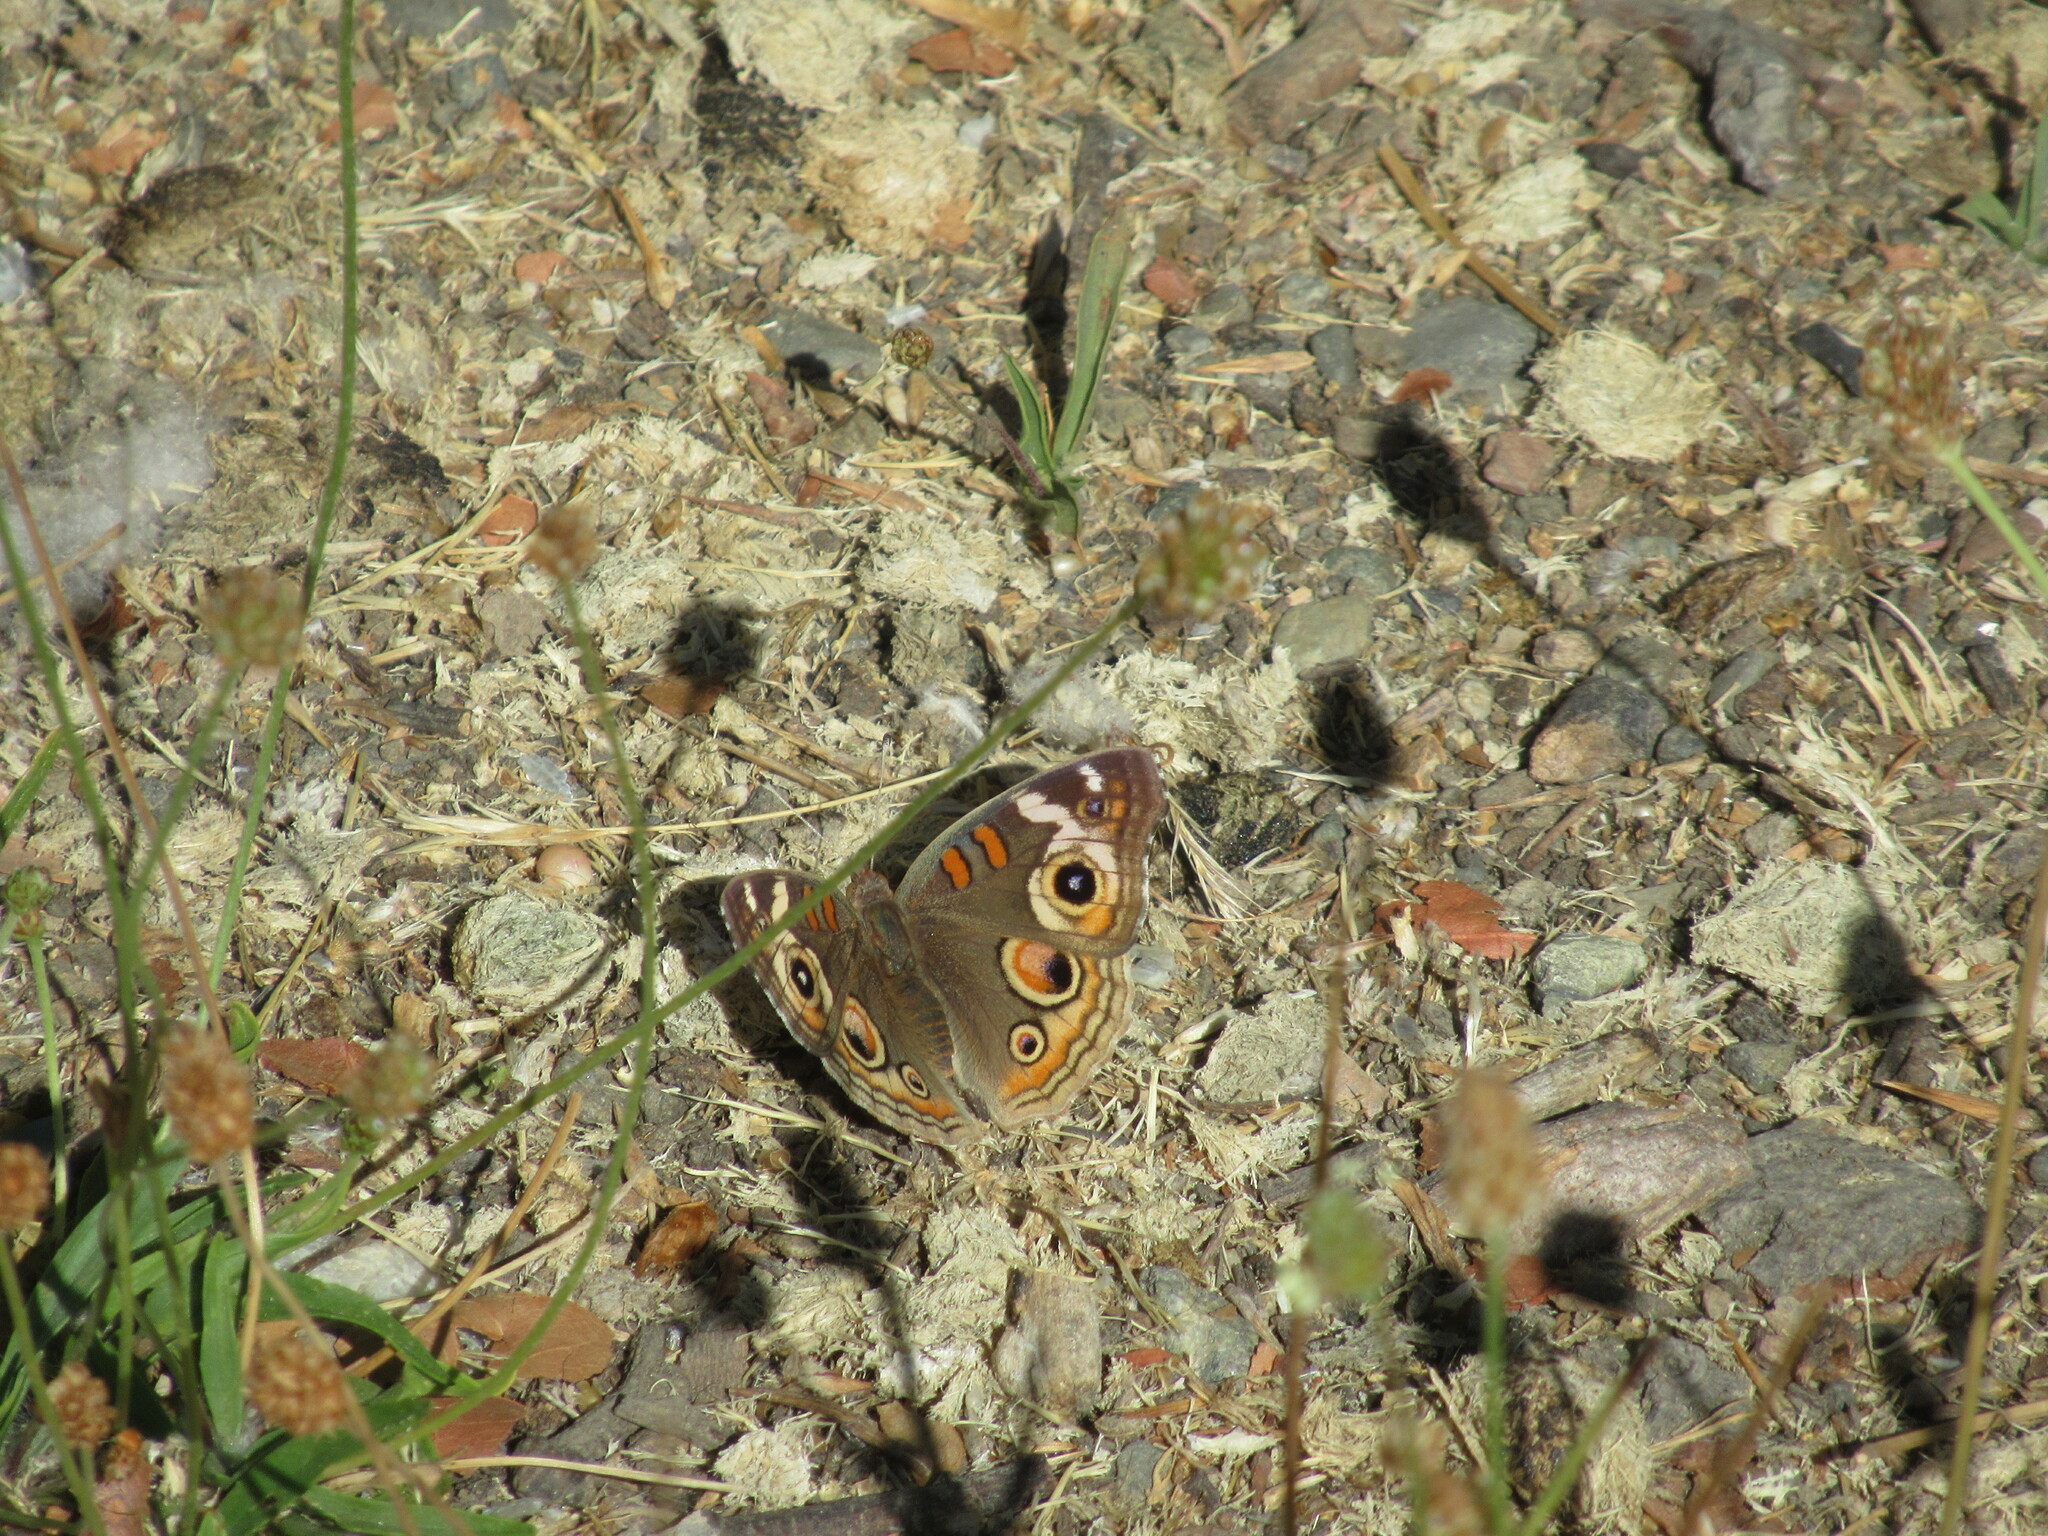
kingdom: Animalia
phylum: Arthropoda
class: Insecta
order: Lepidoptera
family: Nymphalidae
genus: Junonia
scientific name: Junonia grisea
